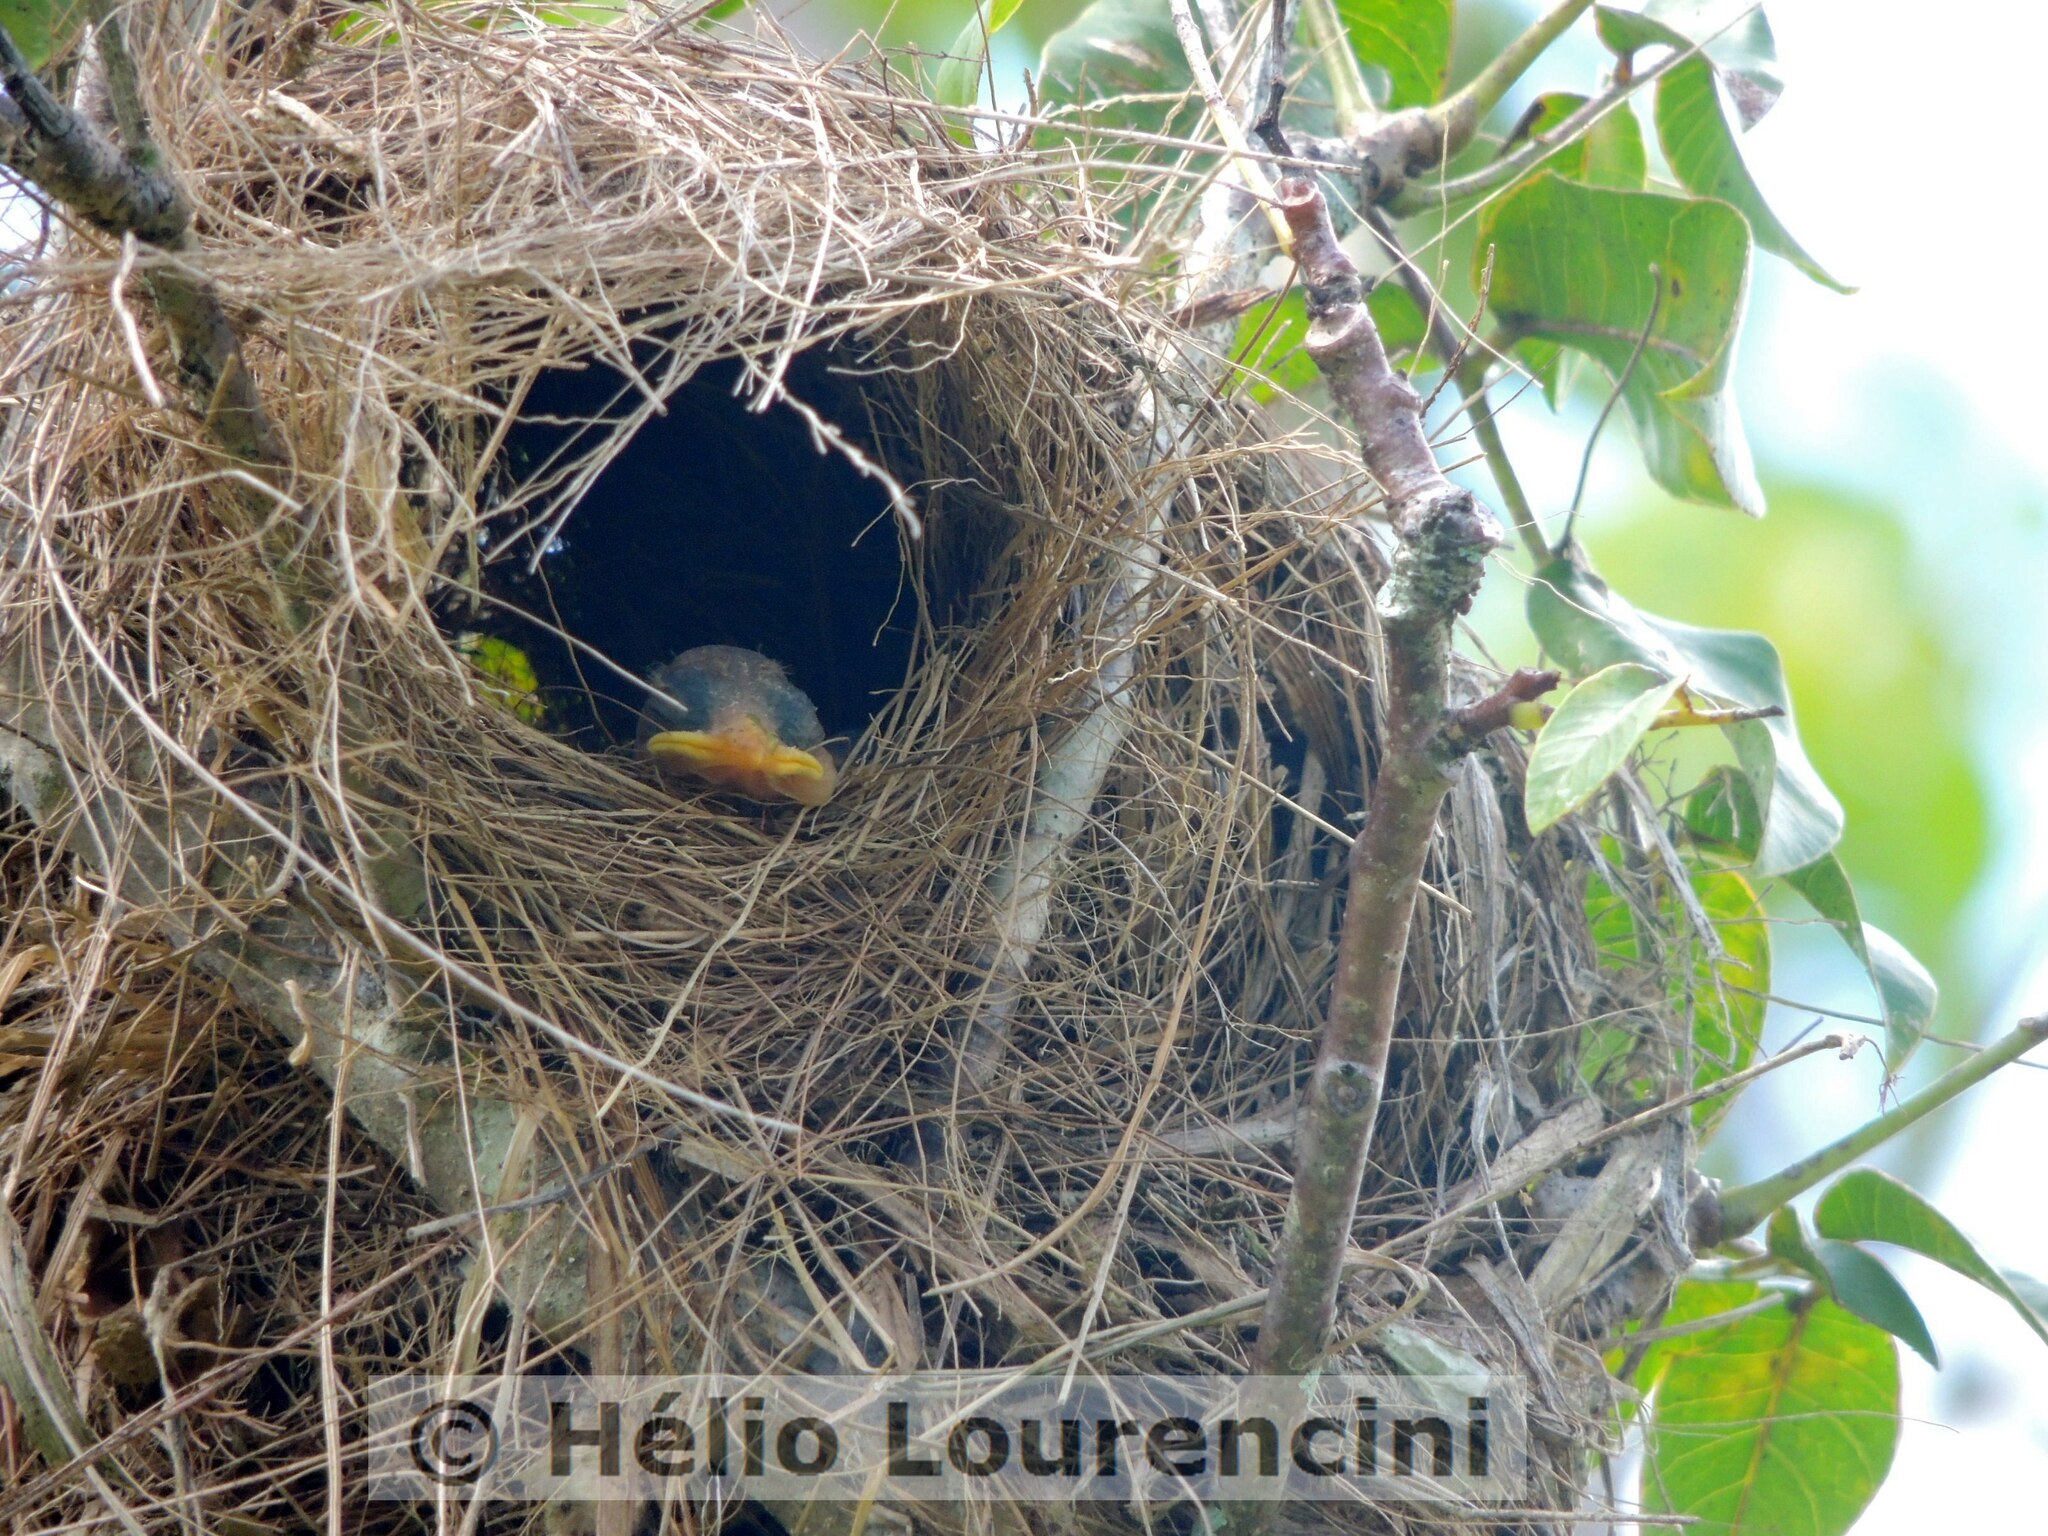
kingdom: Animalia
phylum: Chordata
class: Aves
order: Passeriformes
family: Tyrannidae
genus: Myiozetetes
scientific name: Myiozetetes similis
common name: Social flycatcher
